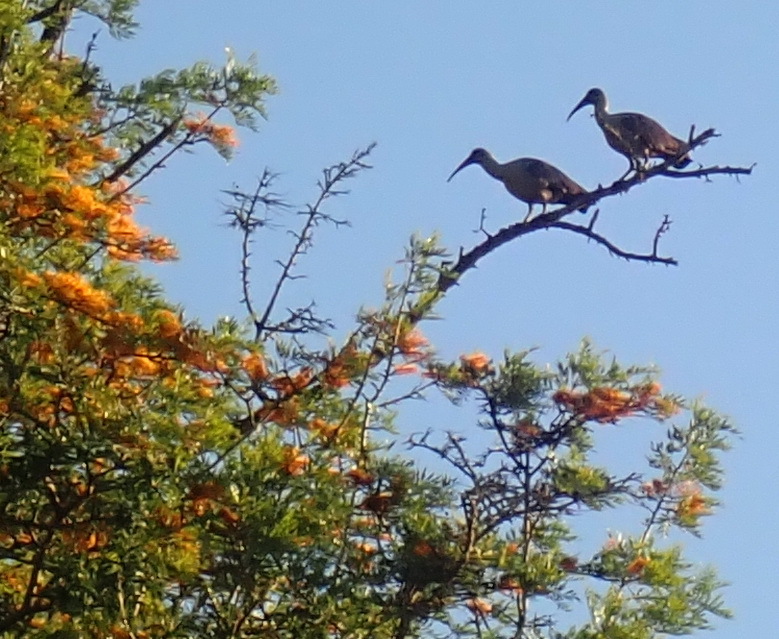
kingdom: Animalia
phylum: Chordata
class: Aves
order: Pelecaniformes
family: Threskiornithidae
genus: Bostrychia
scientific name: Bostrychia hagedash
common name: Hadada ibis
